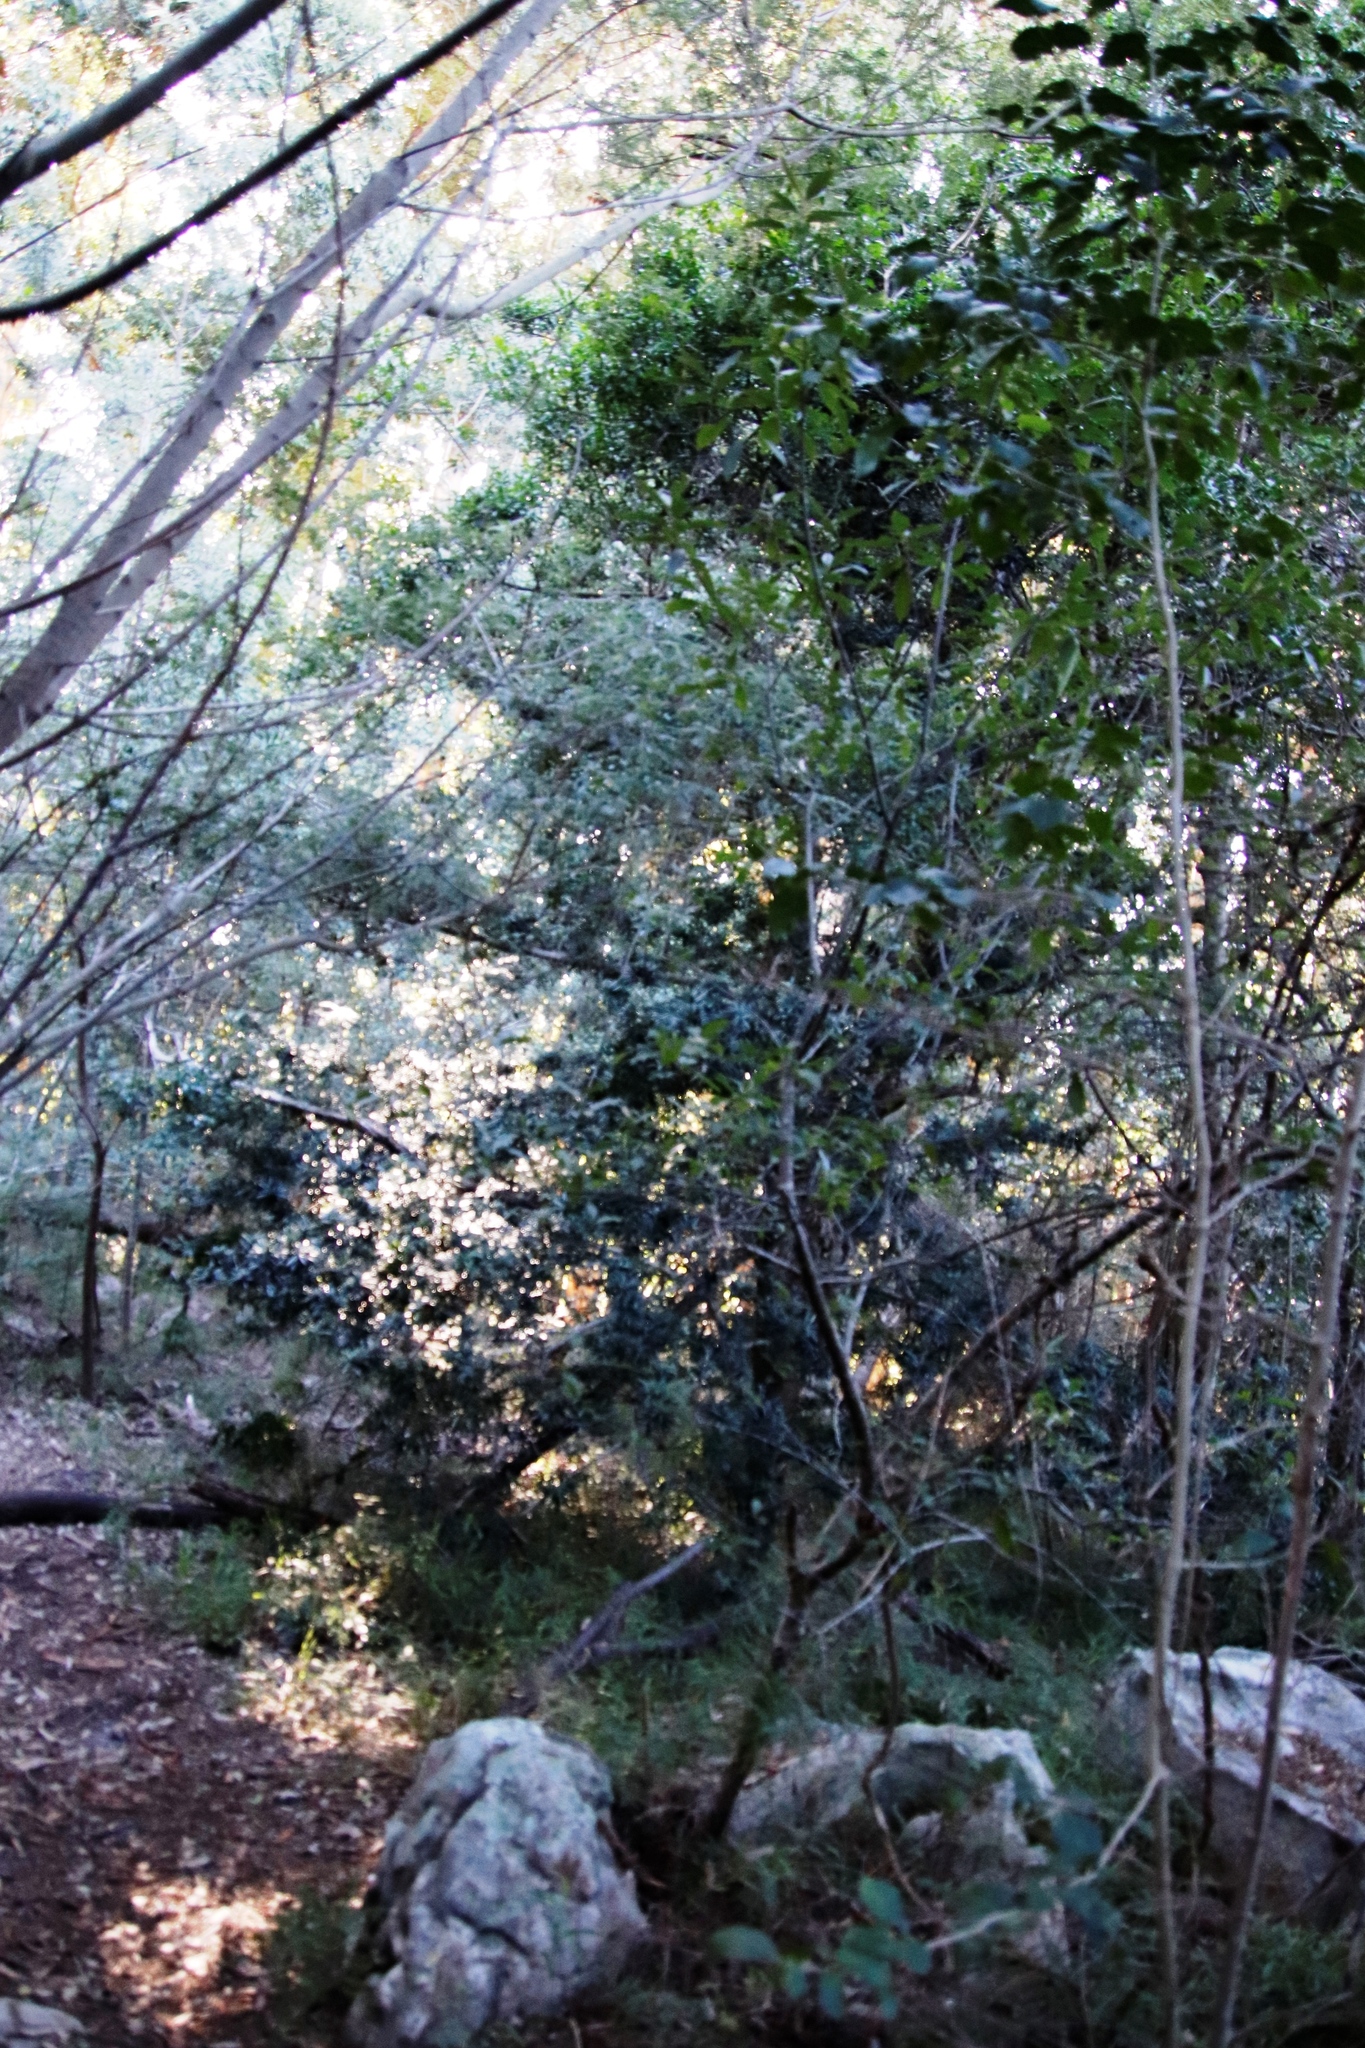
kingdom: Plantae
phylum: Tracheophyta
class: Pinopsida
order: Pinales
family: Podocarpaceae
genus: Podocarpus
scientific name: Podocarpus latifolius
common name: True yellowwood
